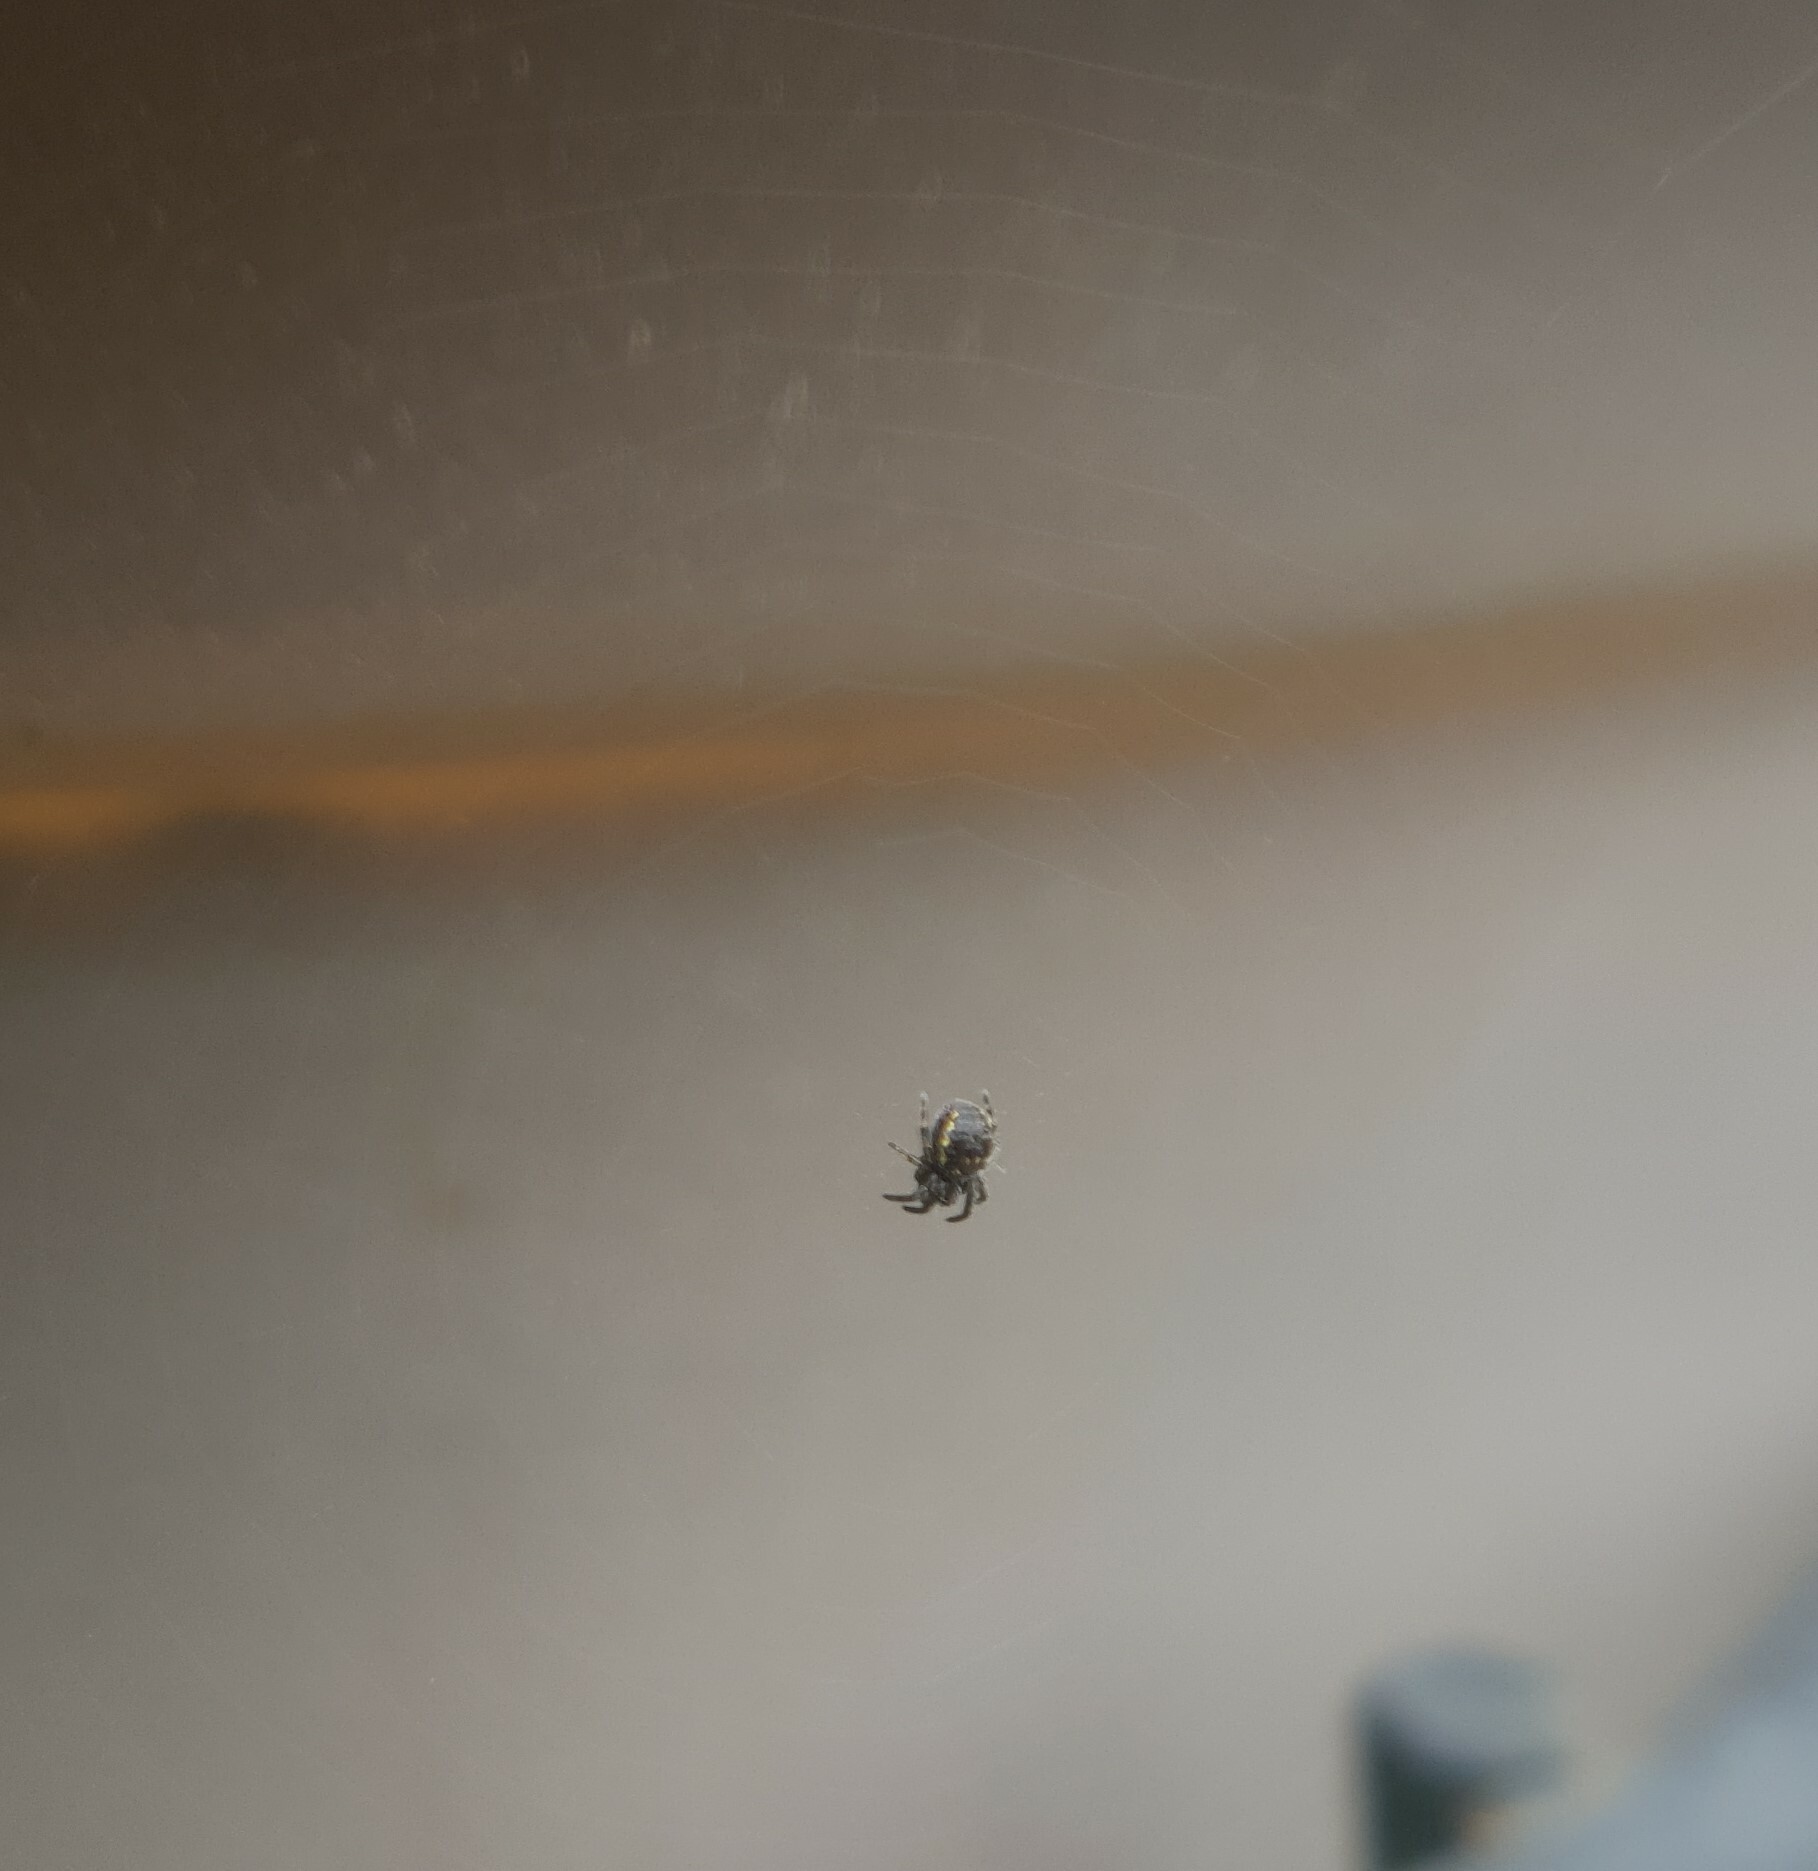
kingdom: Animalia
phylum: Arthropoda
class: Arachnida
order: Araneae
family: Araneidae
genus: Nuctenea
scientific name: Nuctenea umbratica
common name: Toad spider
